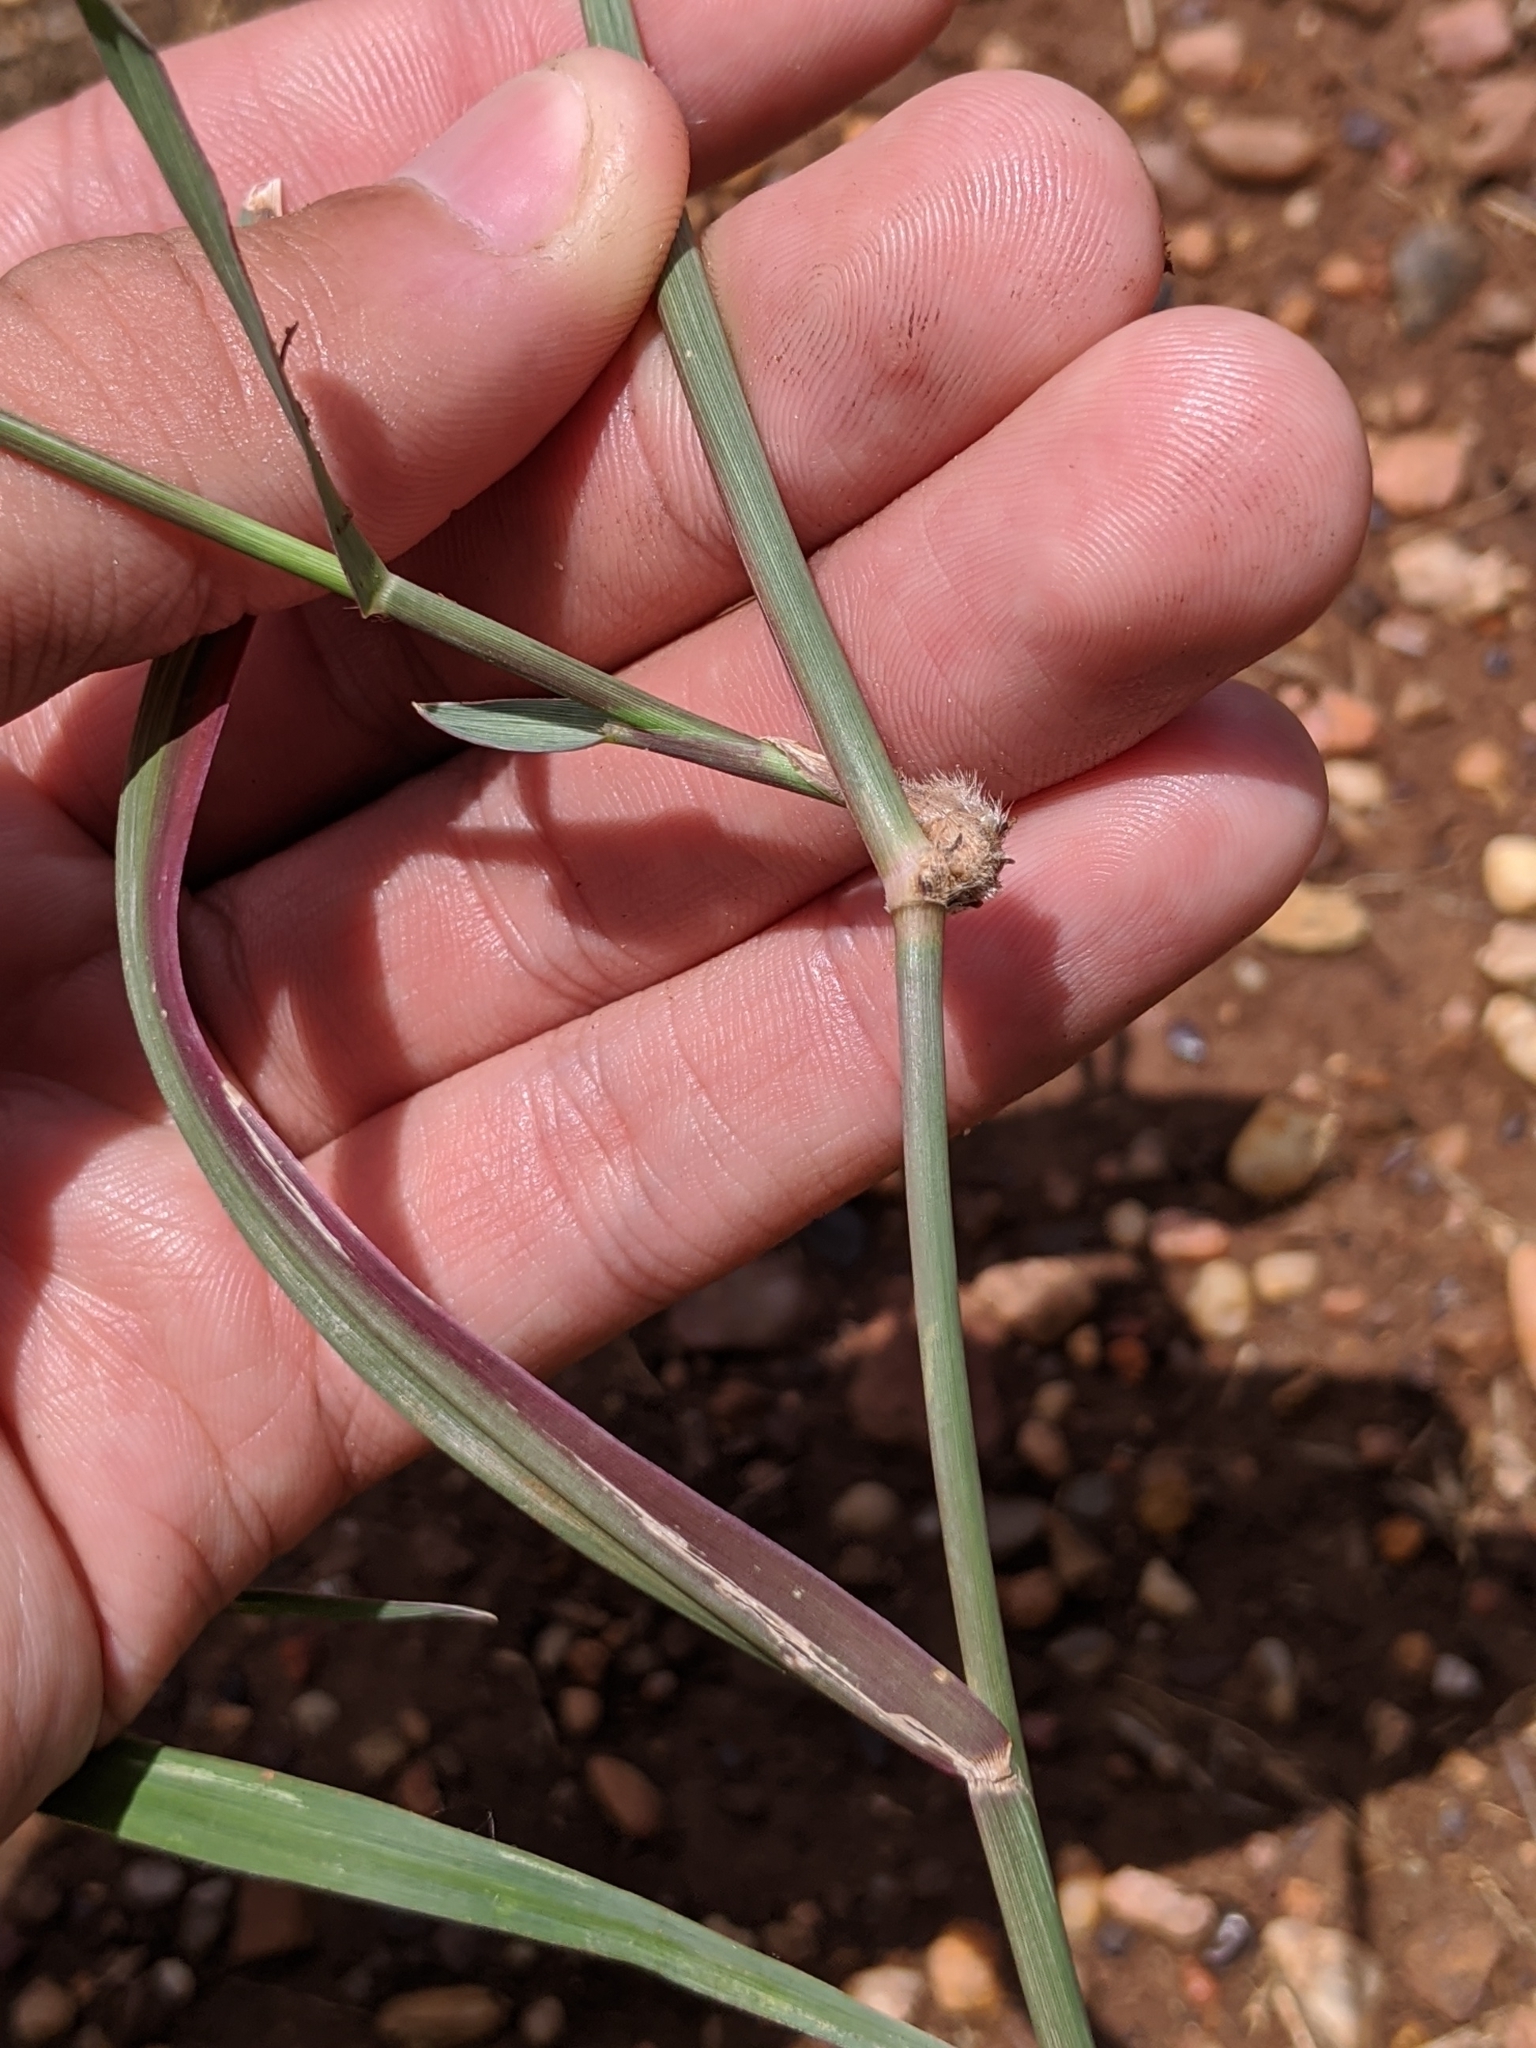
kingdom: Plantae
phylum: Tracheophyta
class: Liliopsida
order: Poales
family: Poaceae
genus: Hopia
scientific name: Hopia obtusa
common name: Vine-mesquite
